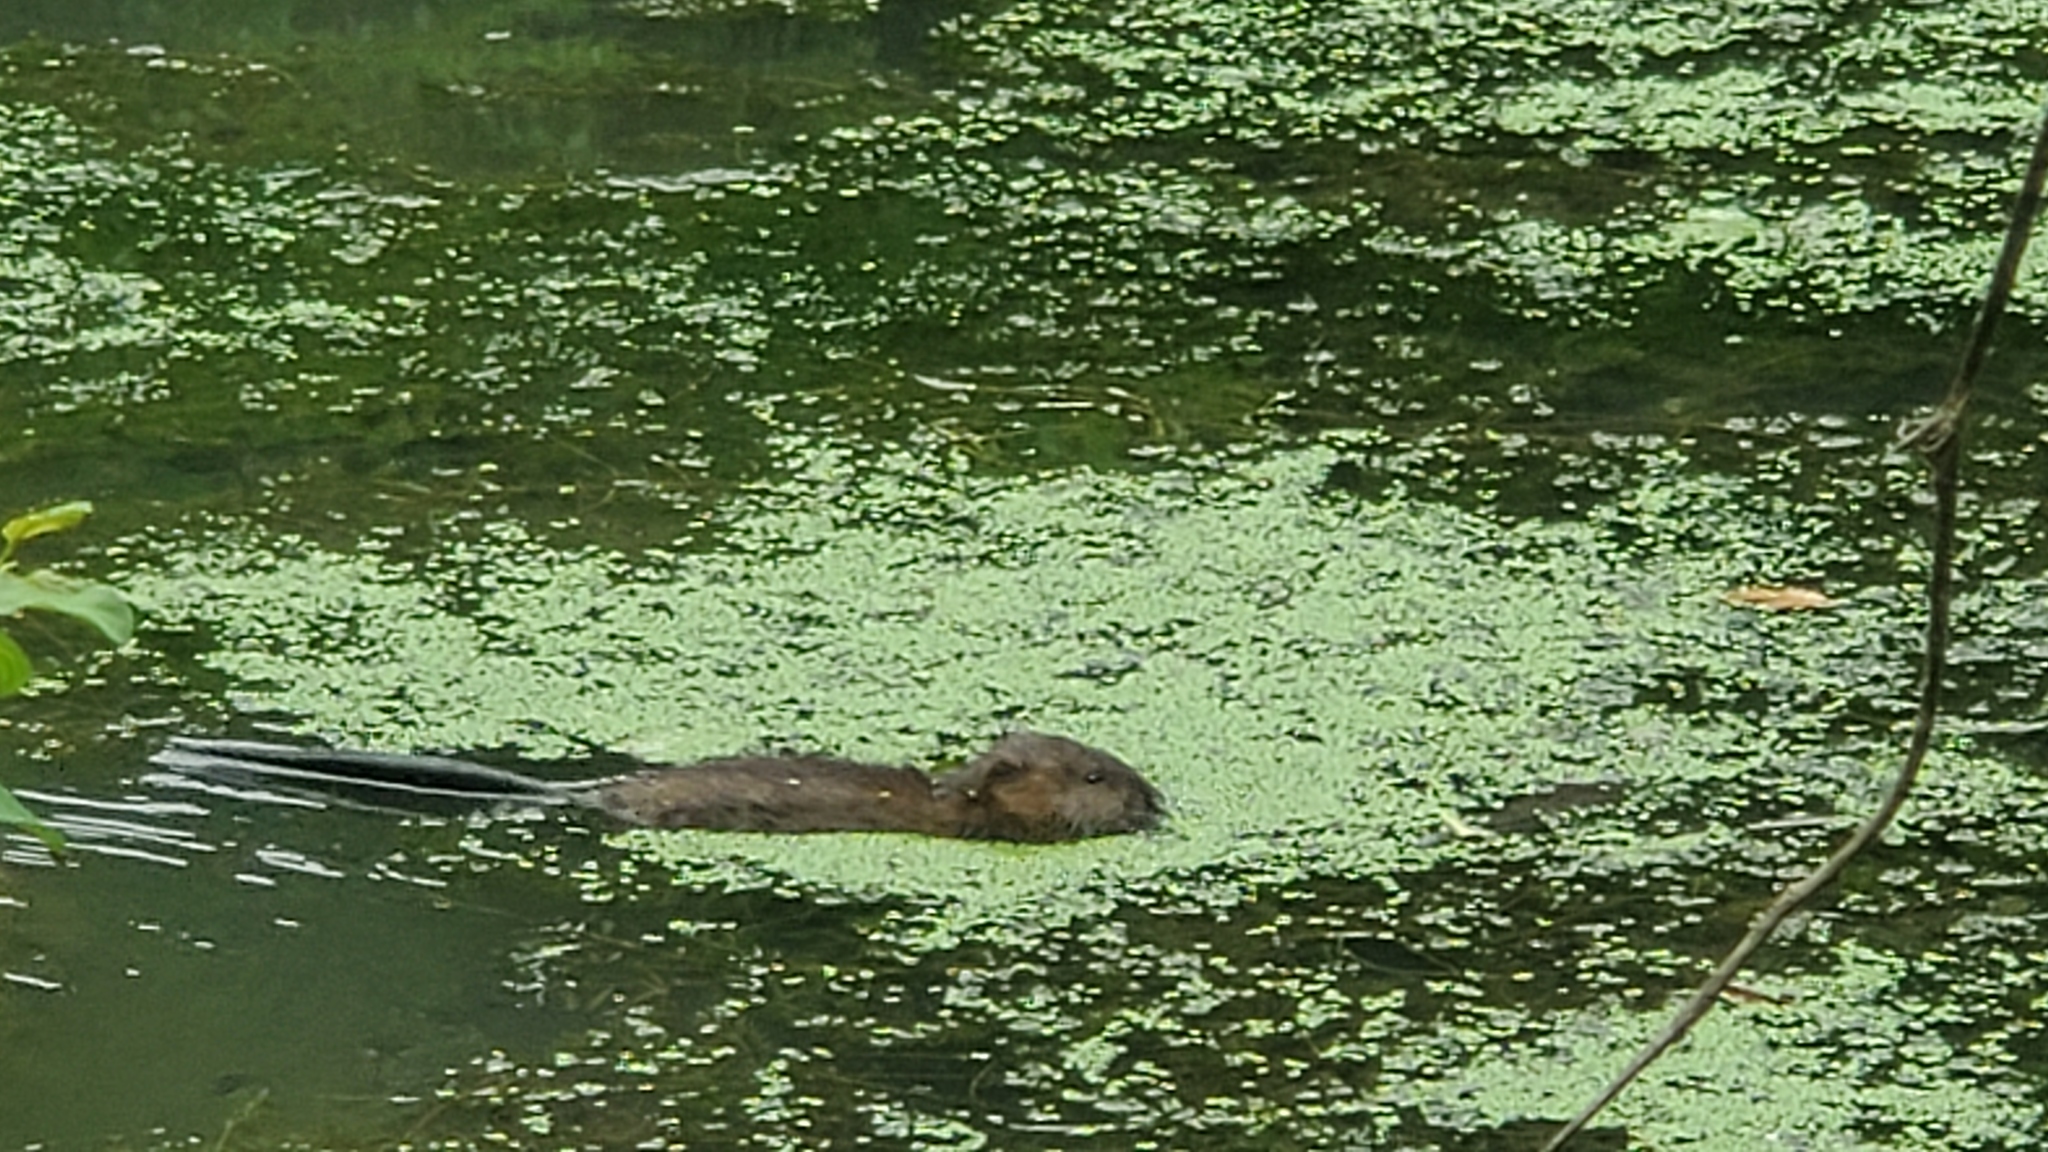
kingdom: Animalia
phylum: Chordata
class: Mammalia
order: Rodentia
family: Cricetidae
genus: Ondatra
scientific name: Ondatra zibethicus
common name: Muskrat
